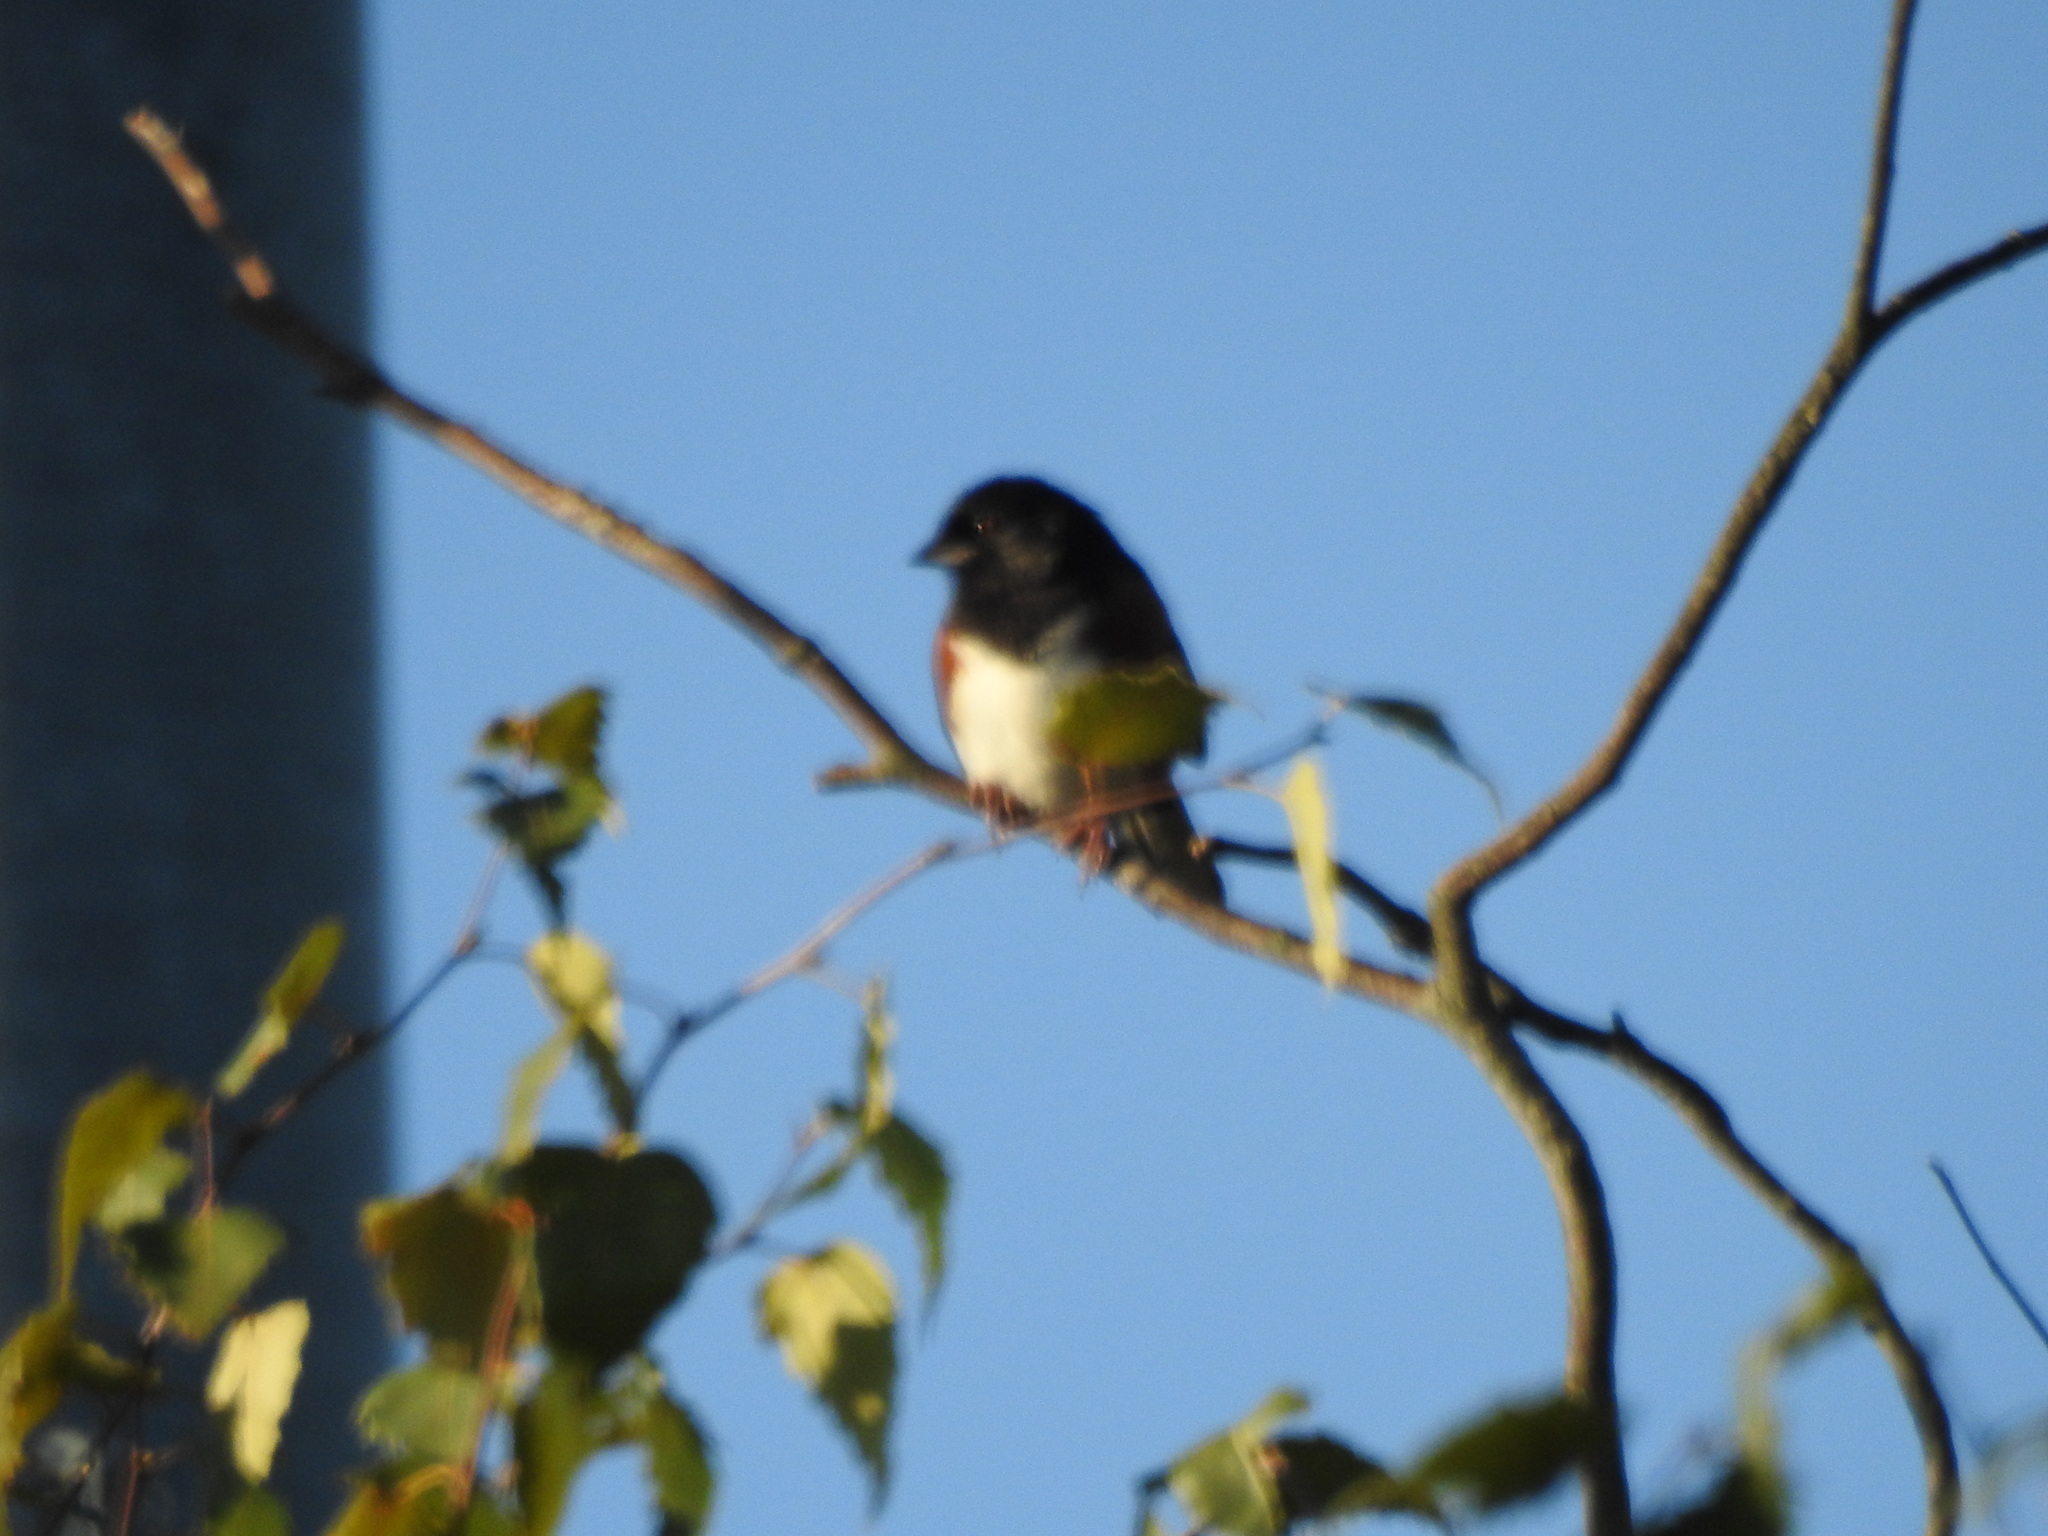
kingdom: Animalia
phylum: Chordata
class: Aves
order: Passeriformes
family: Passerellidae
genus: Pipilo
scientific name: Pipilo erythrophthalmus
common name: Eastern towhee
